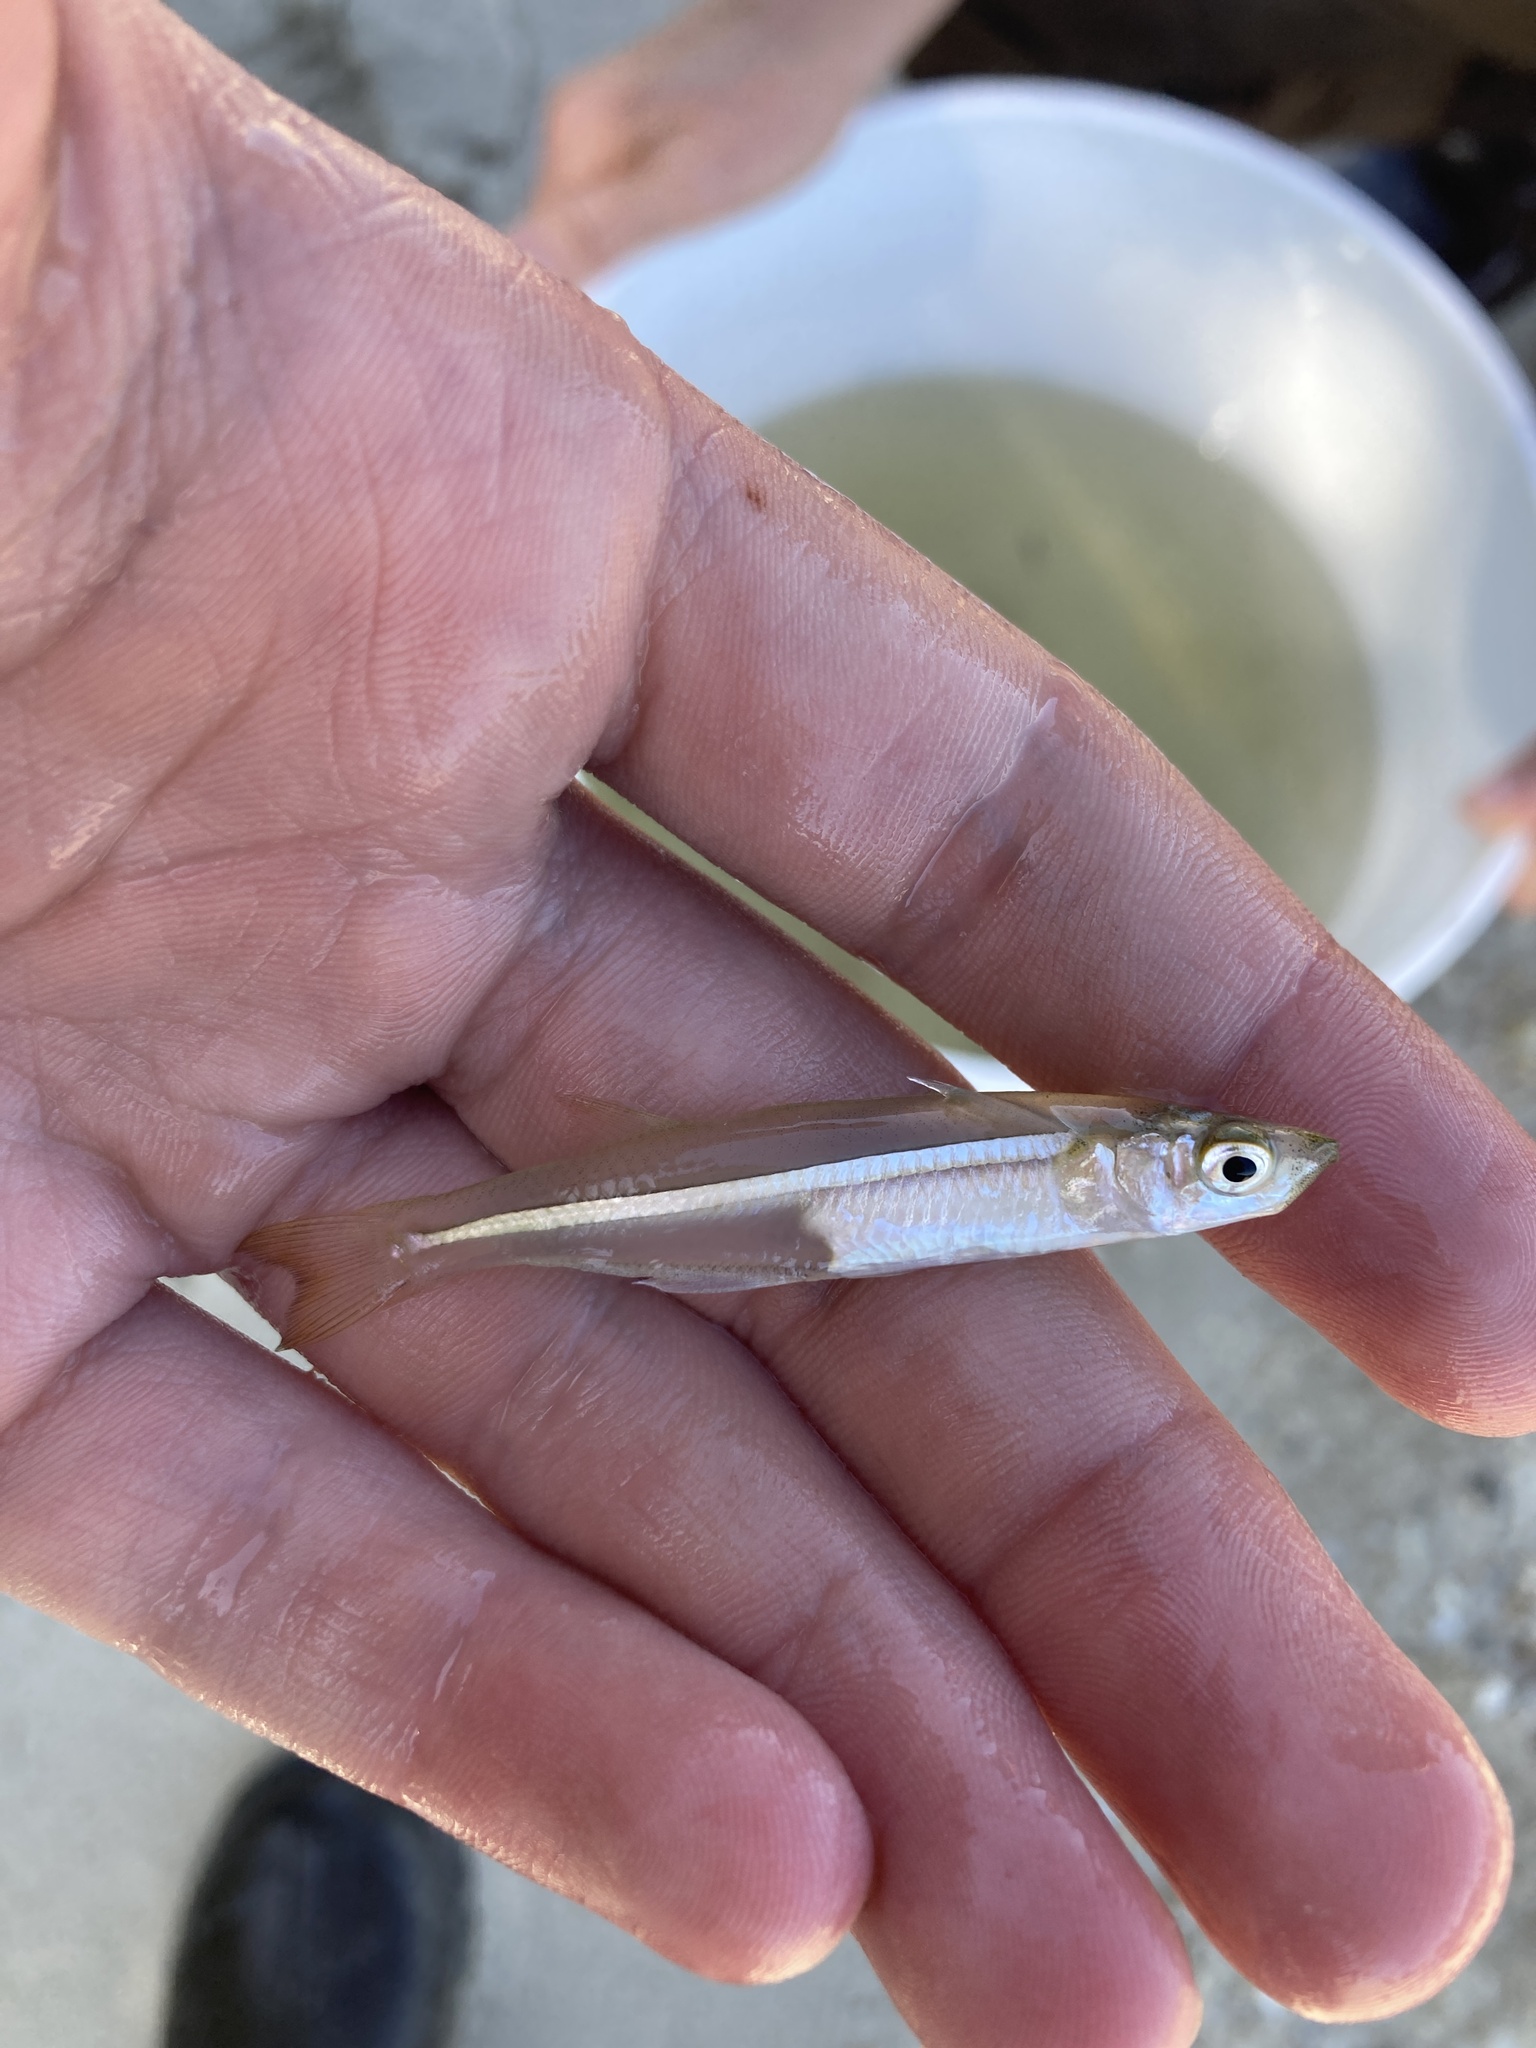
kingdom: Animalia
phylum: Chordata
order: Atheriniformes
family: Atherinopsidae
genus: Menidia
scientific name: Menidia menidia
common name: Atlantic silverside
